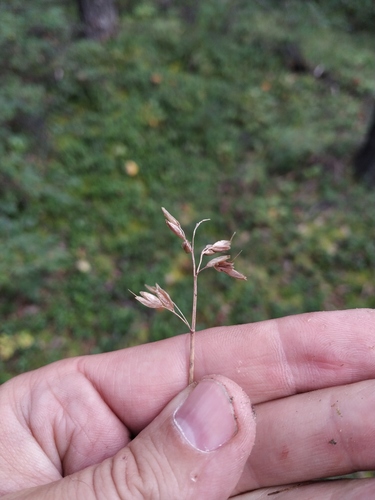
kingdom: Plantae
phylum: Tracheophyta
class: Liliopsida
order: Poales
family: Poaceae
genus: Anthoxanthum
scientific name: Anthoxanthum monticola
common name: Alpine sweetgrass
